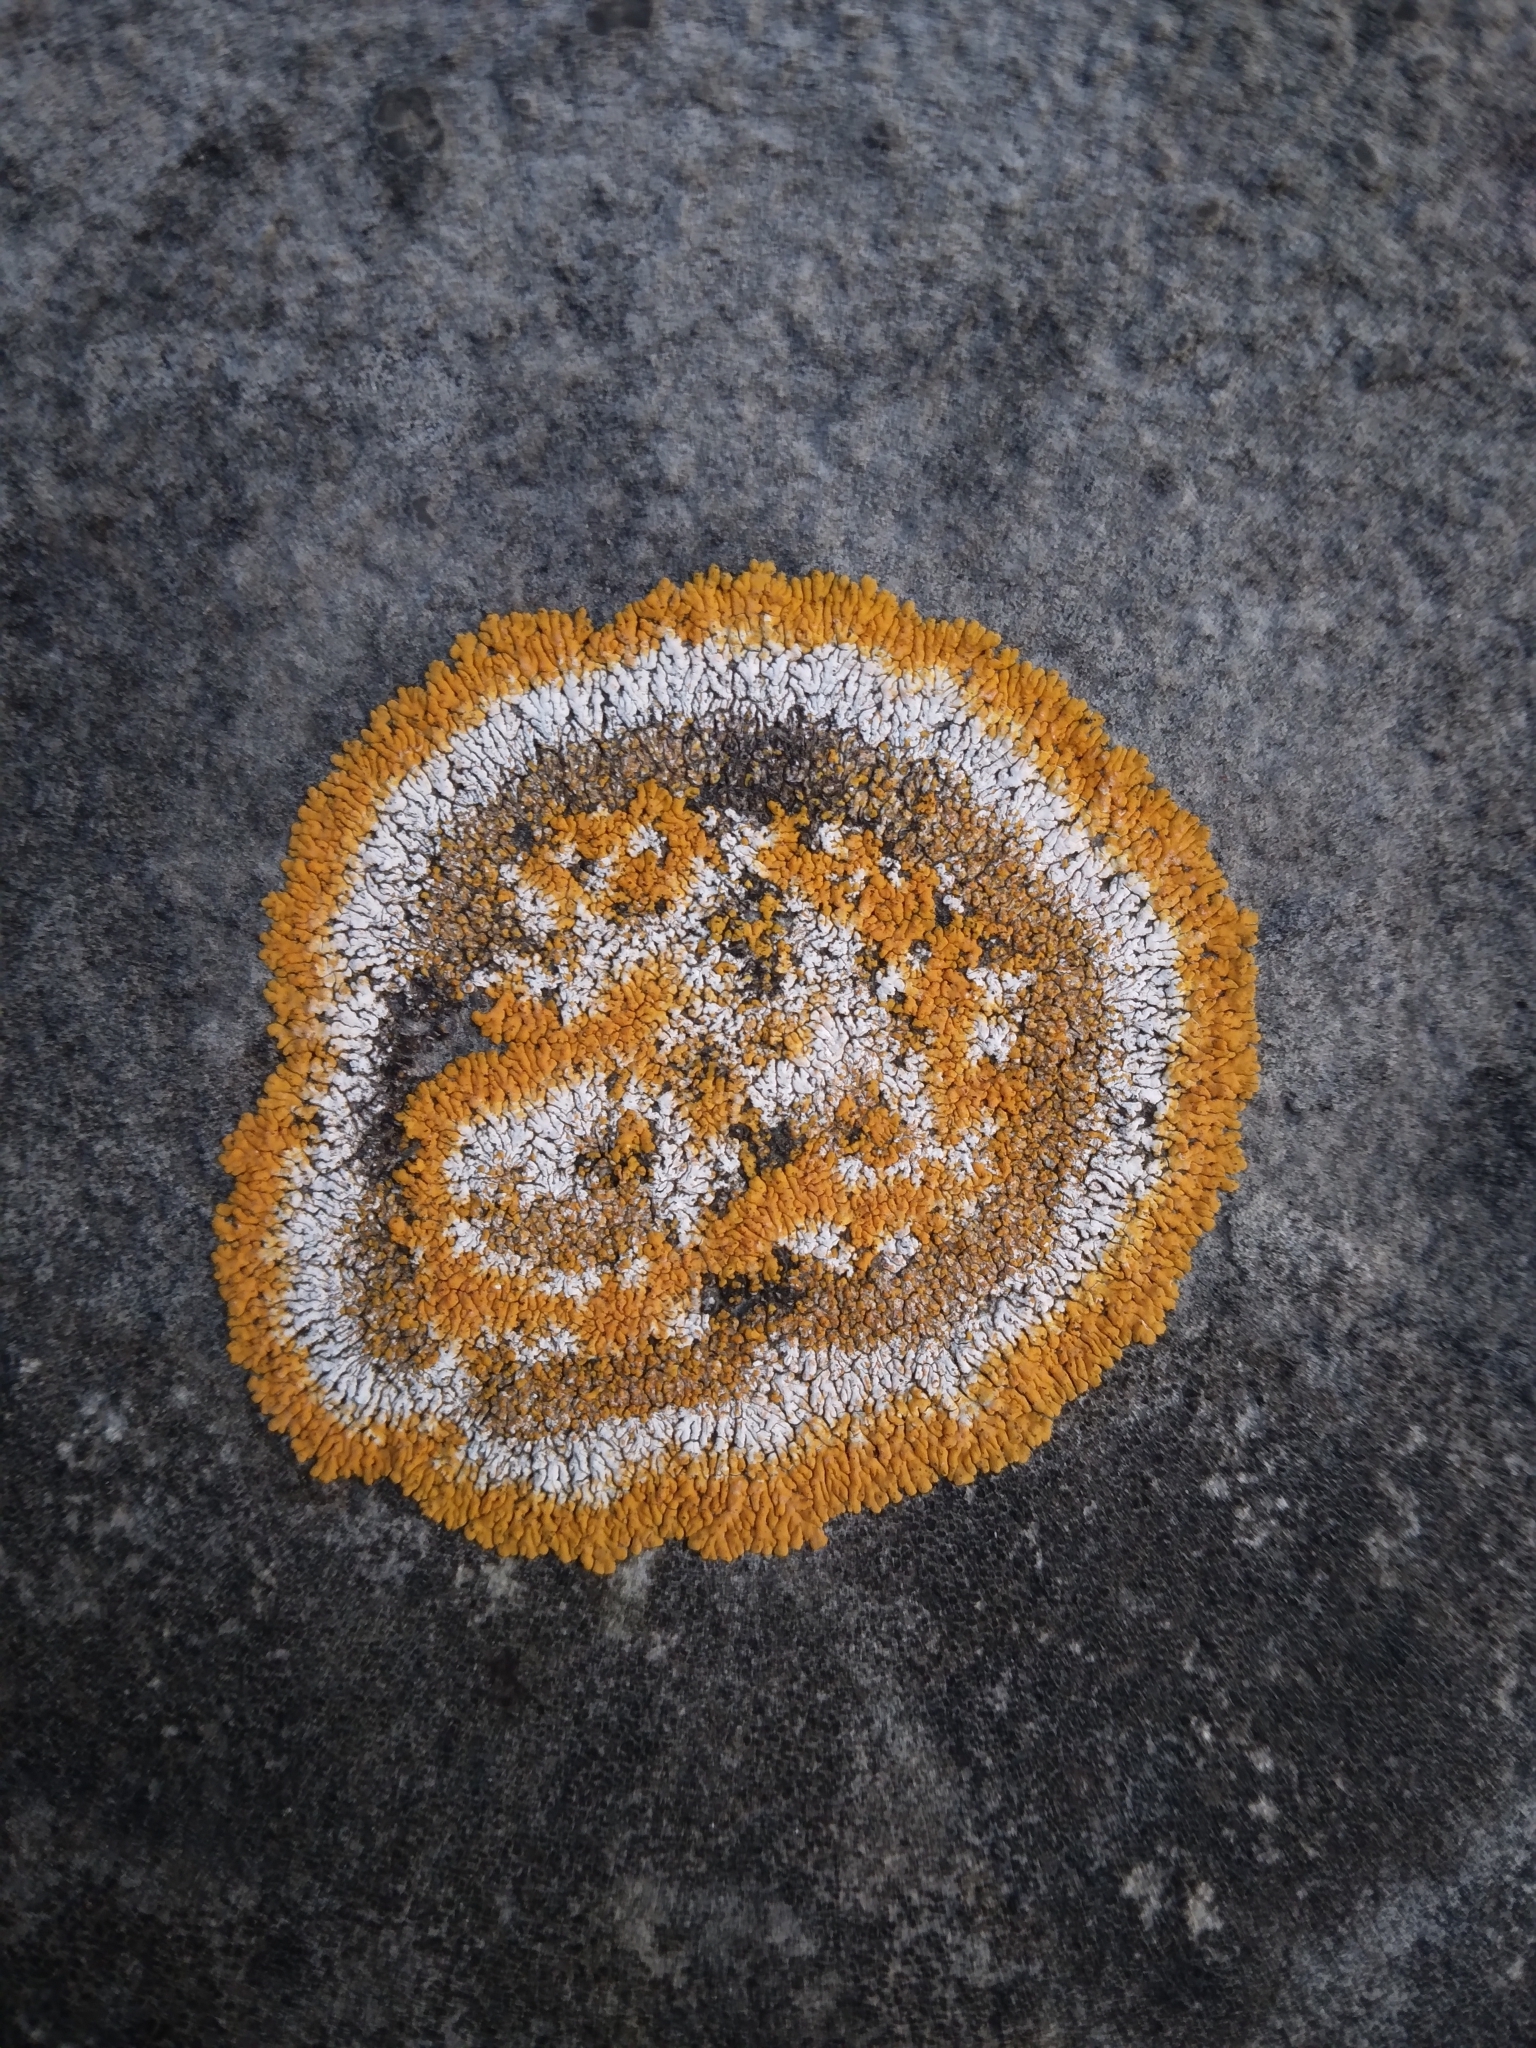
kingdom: Fungi
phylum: Ascomycota
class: Lecanoromycetes
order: Teloschistales
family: Teloschistaceae
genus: Variospora
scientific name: Variospora flavescens
